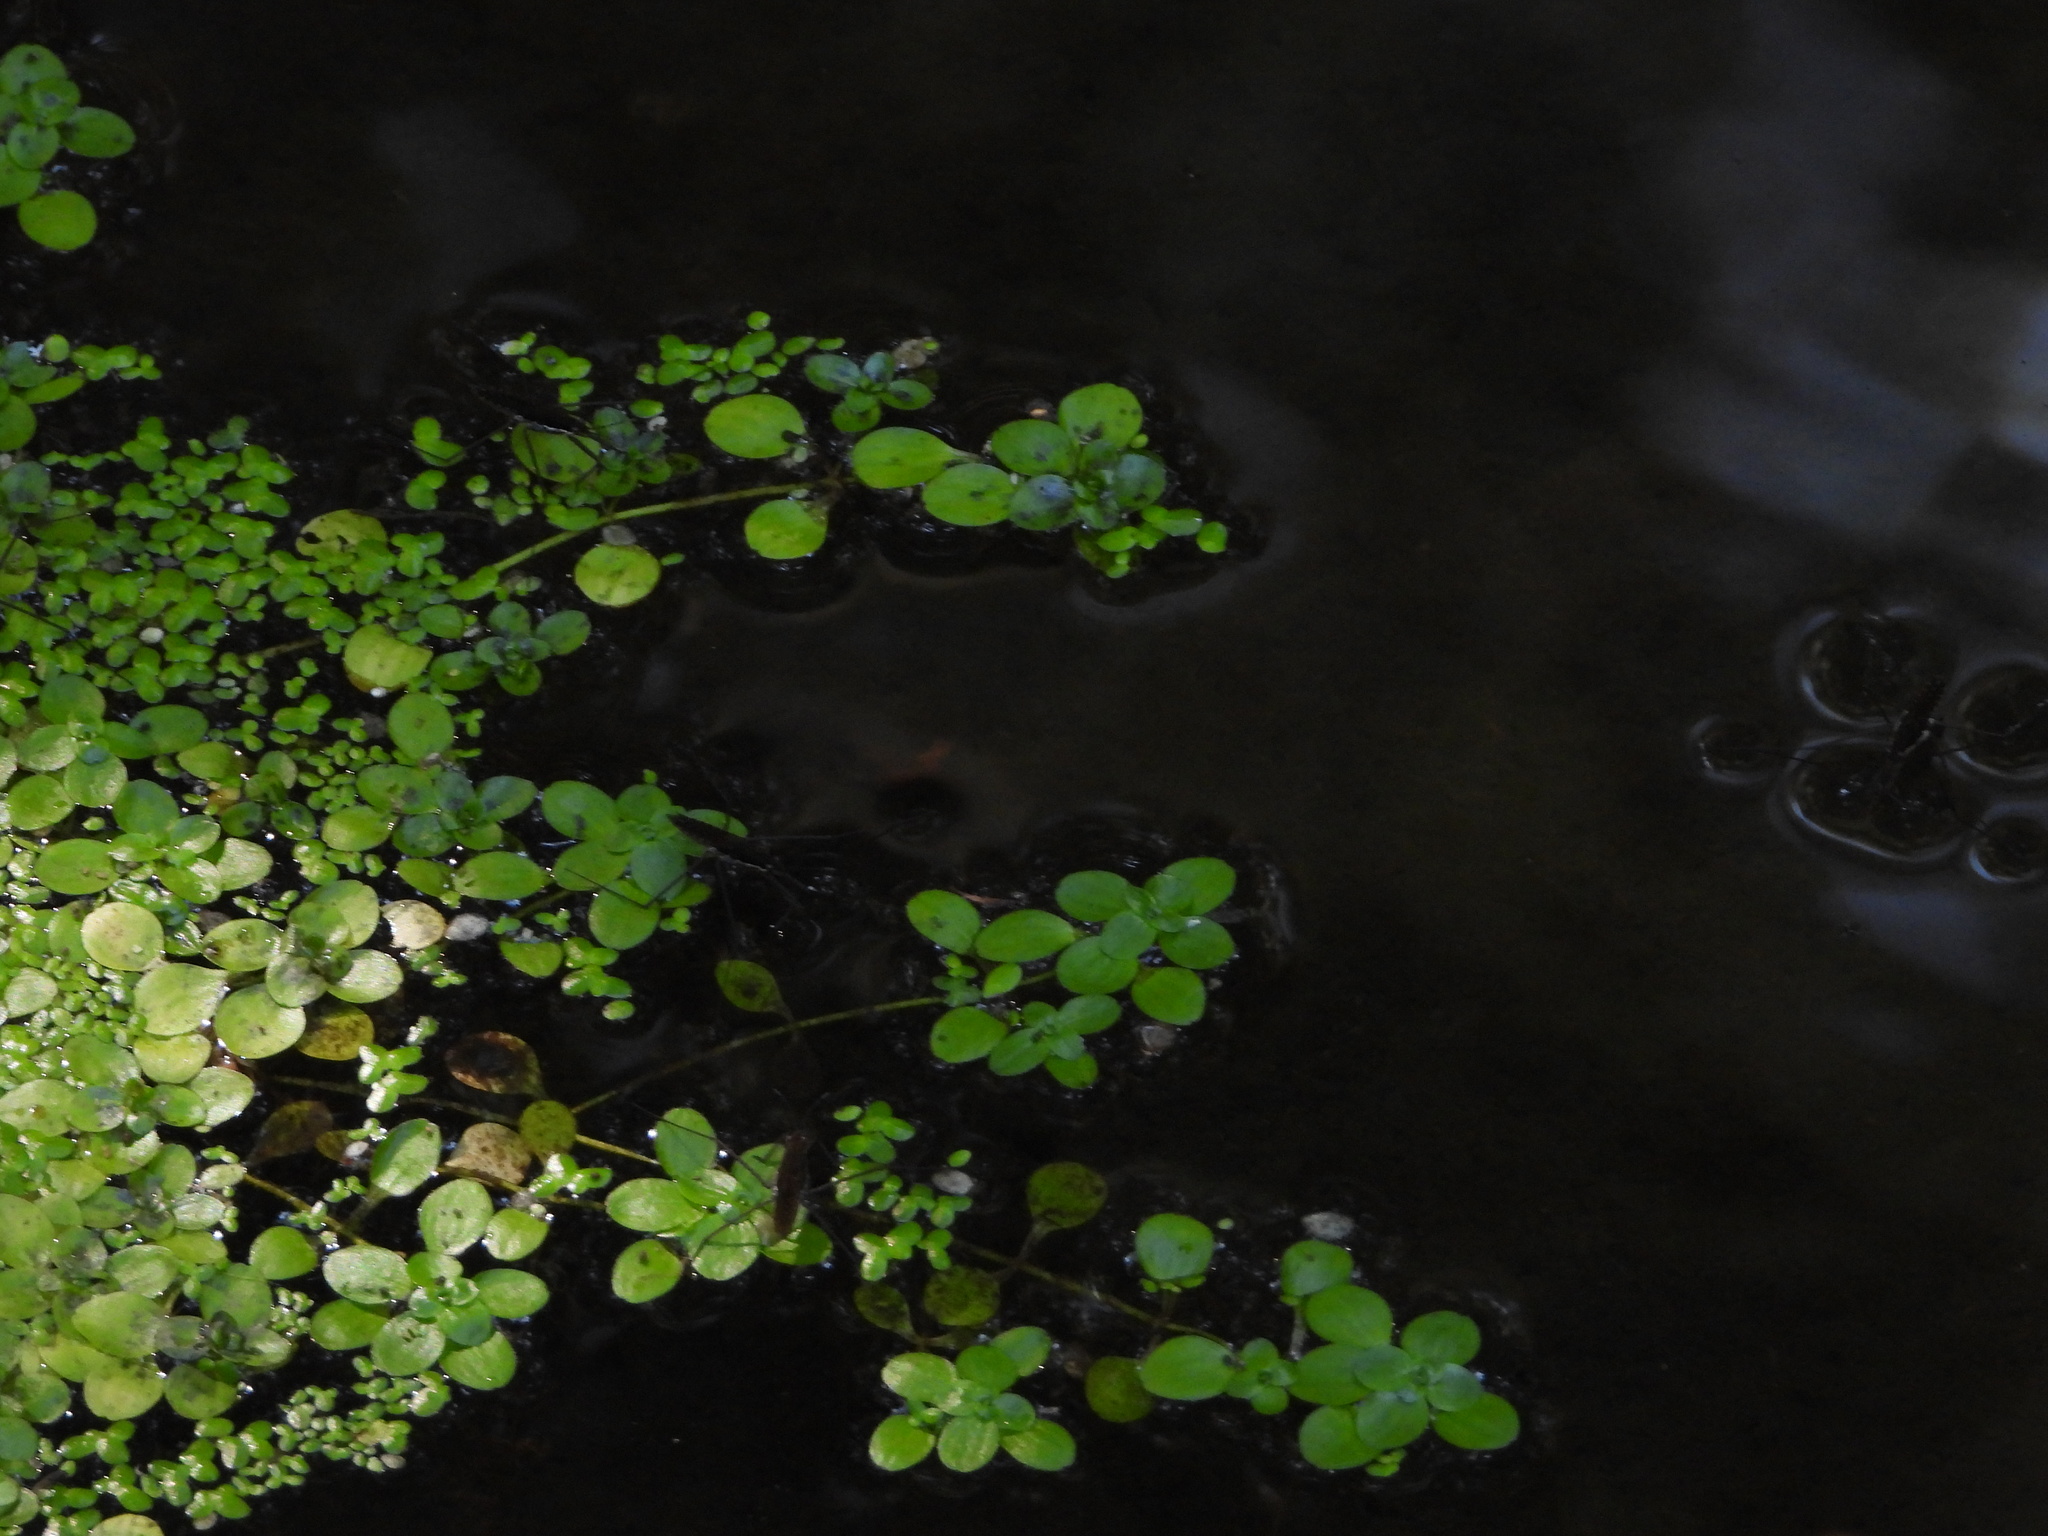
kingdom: Animalia
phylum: Arthropoda
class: Insecta
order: Hemiptera
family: Gerridae
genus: Aquarius
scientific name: Aquarius remigis
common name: Common water strider
